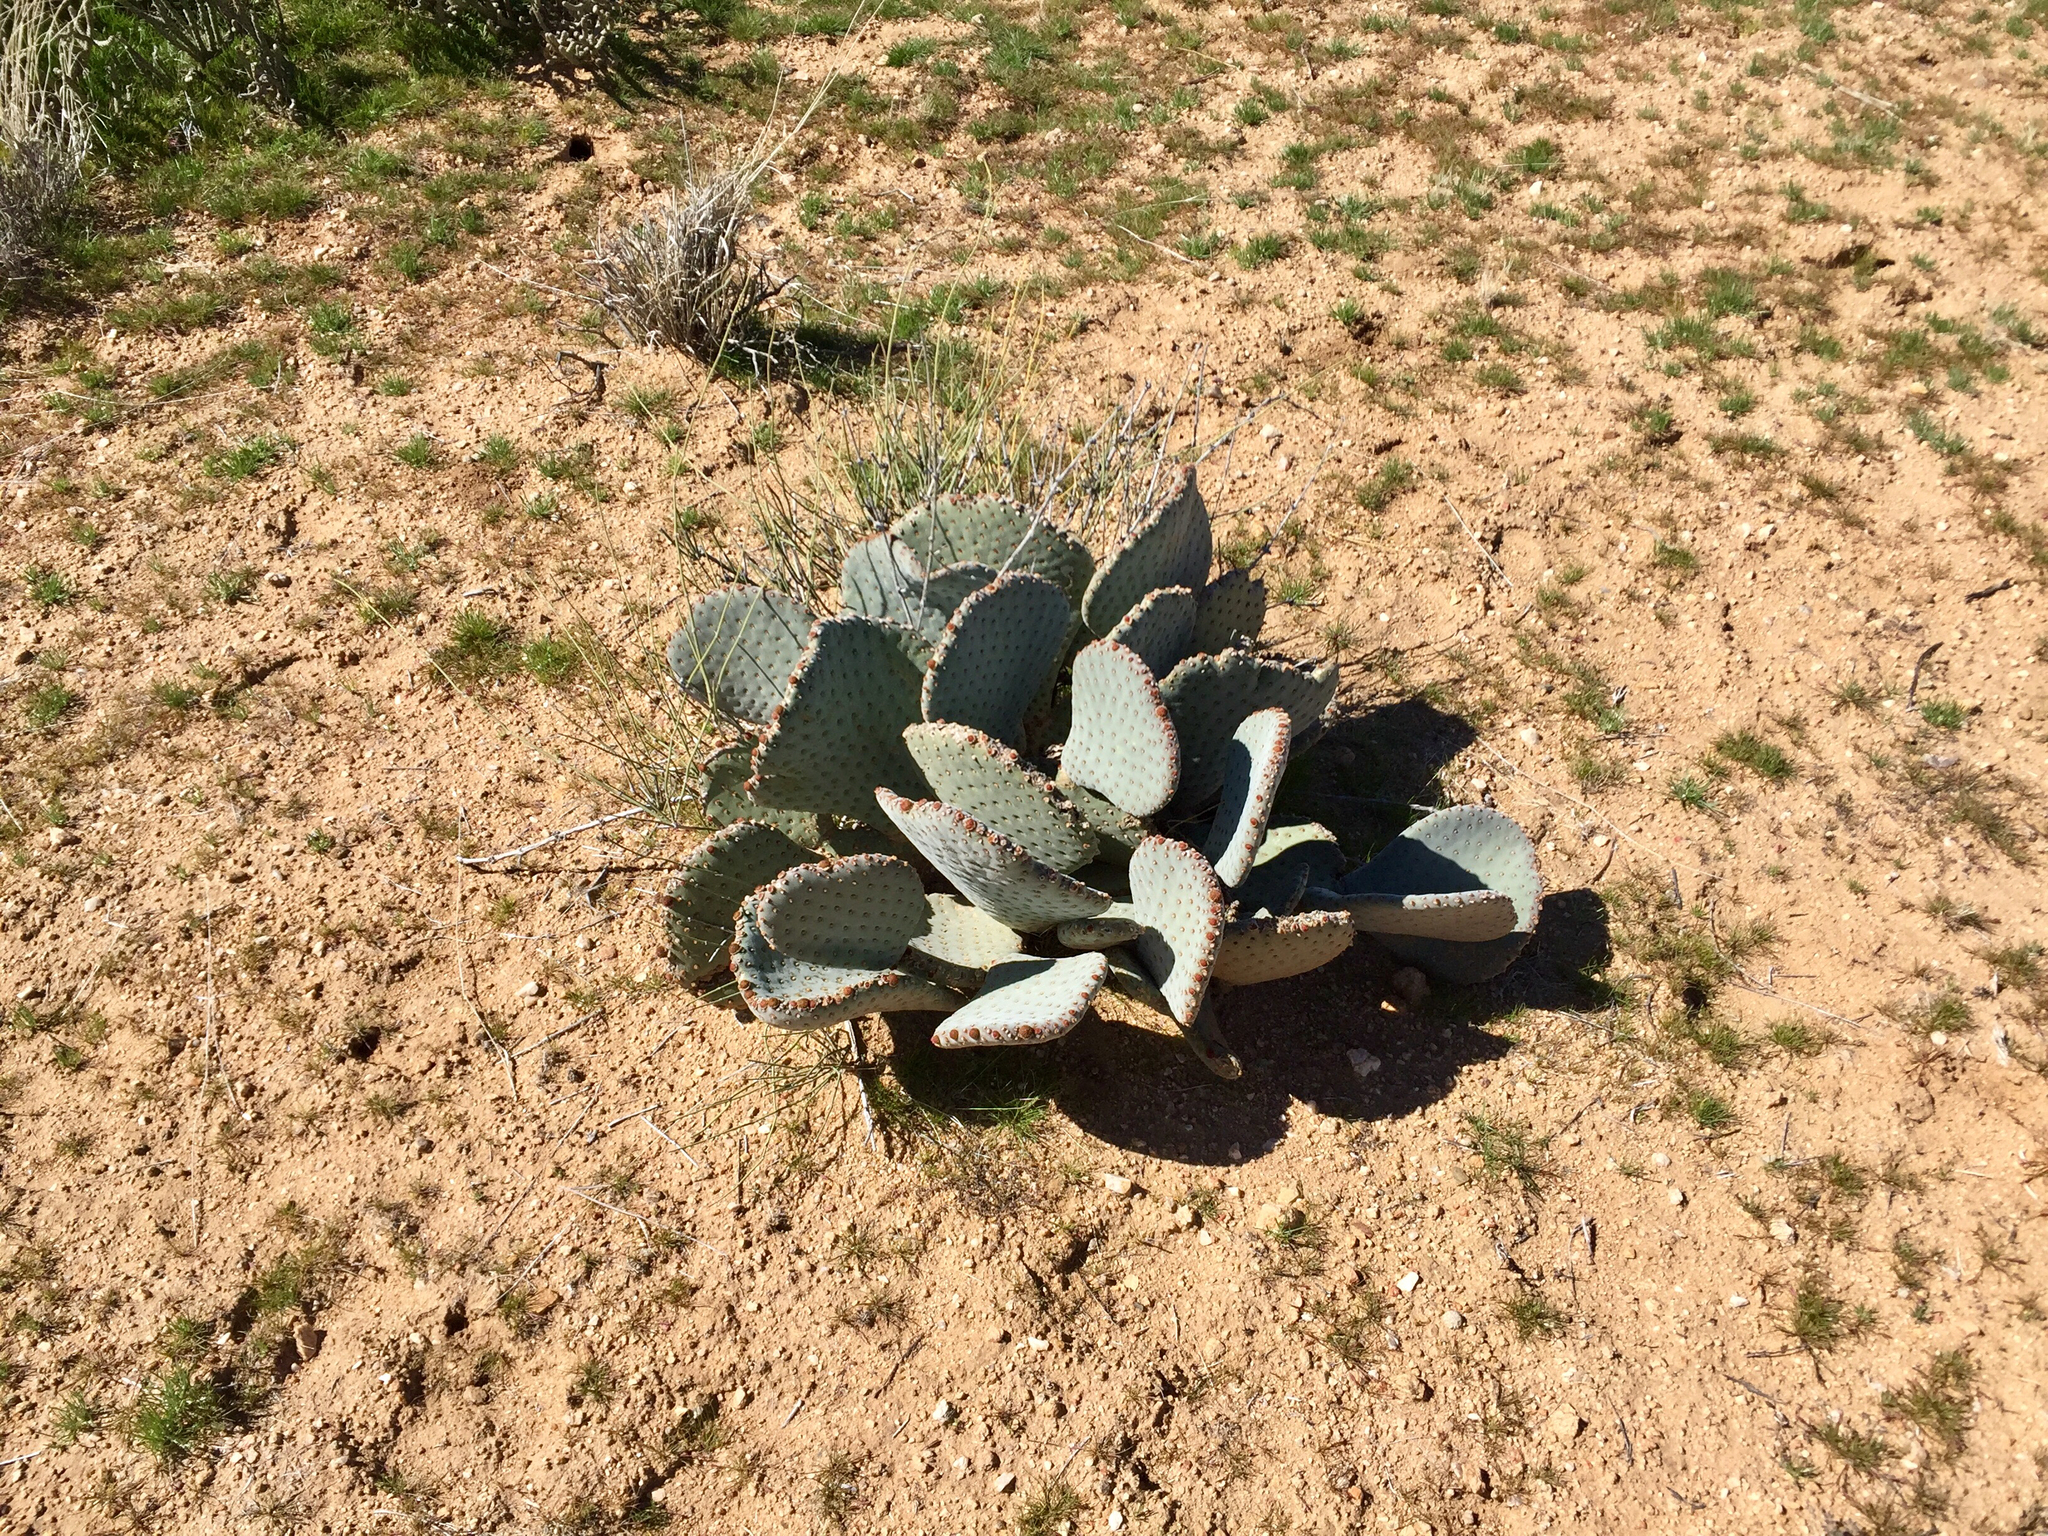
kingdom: Plantae
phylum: Tracheophyta
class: Magnoliopsida
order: Caryophyllales
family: Cactaceae
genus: Opuntia
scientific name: Opuntia basilaris
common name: Beavertail prickly-pear
